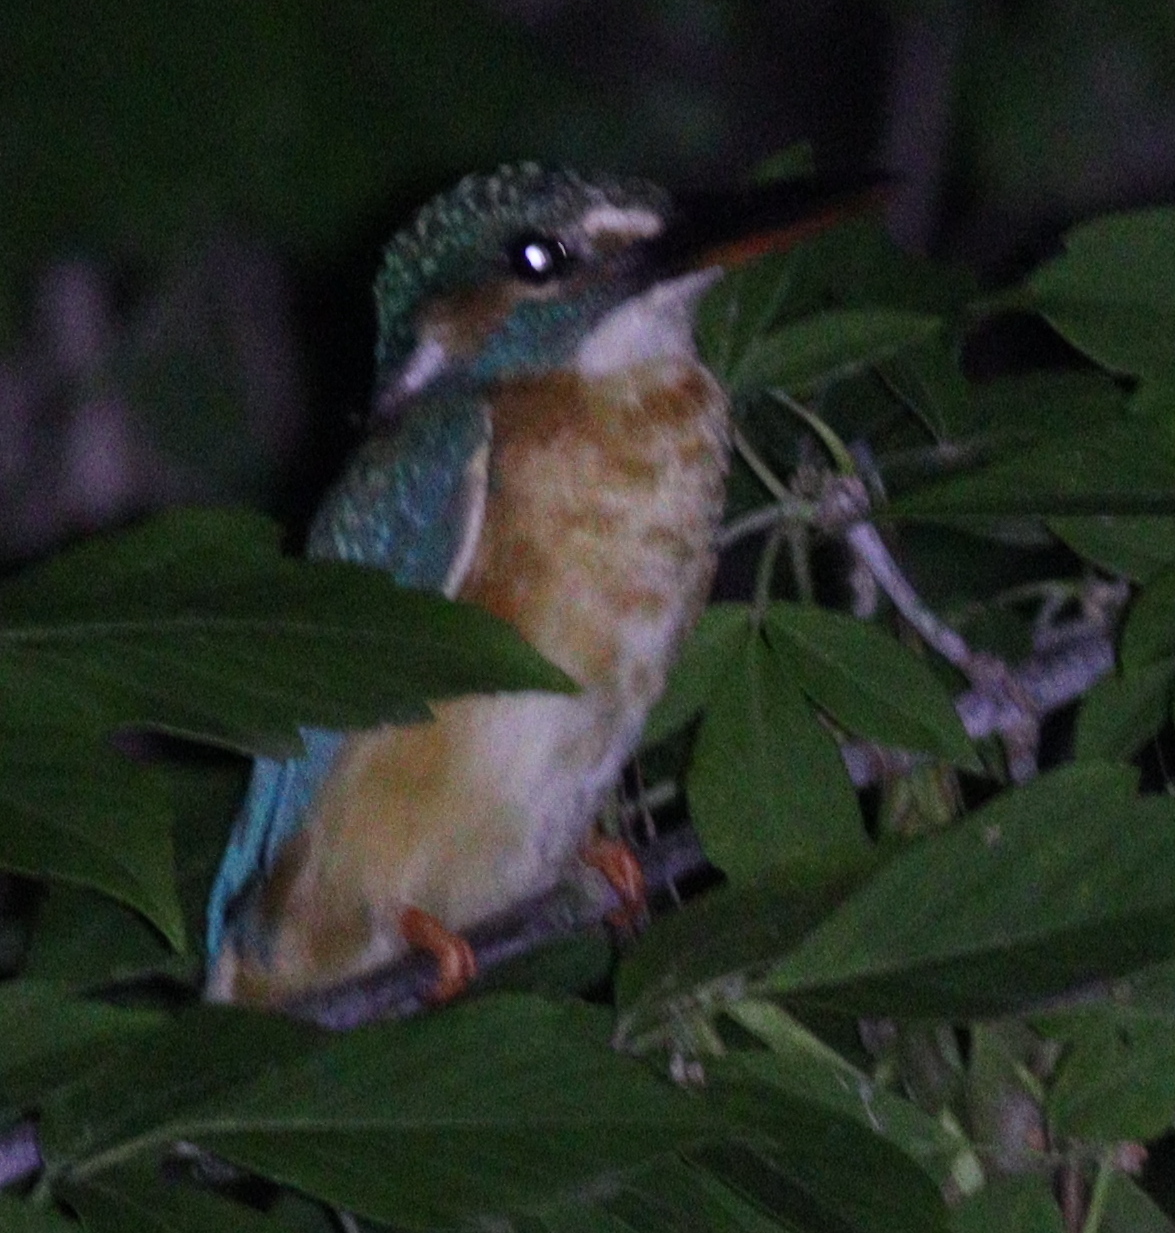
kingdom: Animalia
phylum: Chordata
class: Aves
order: Coraciiformes
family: Alcedinidae
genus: Alcedo
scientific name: Alcedo atthis
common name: Common kingfisher
